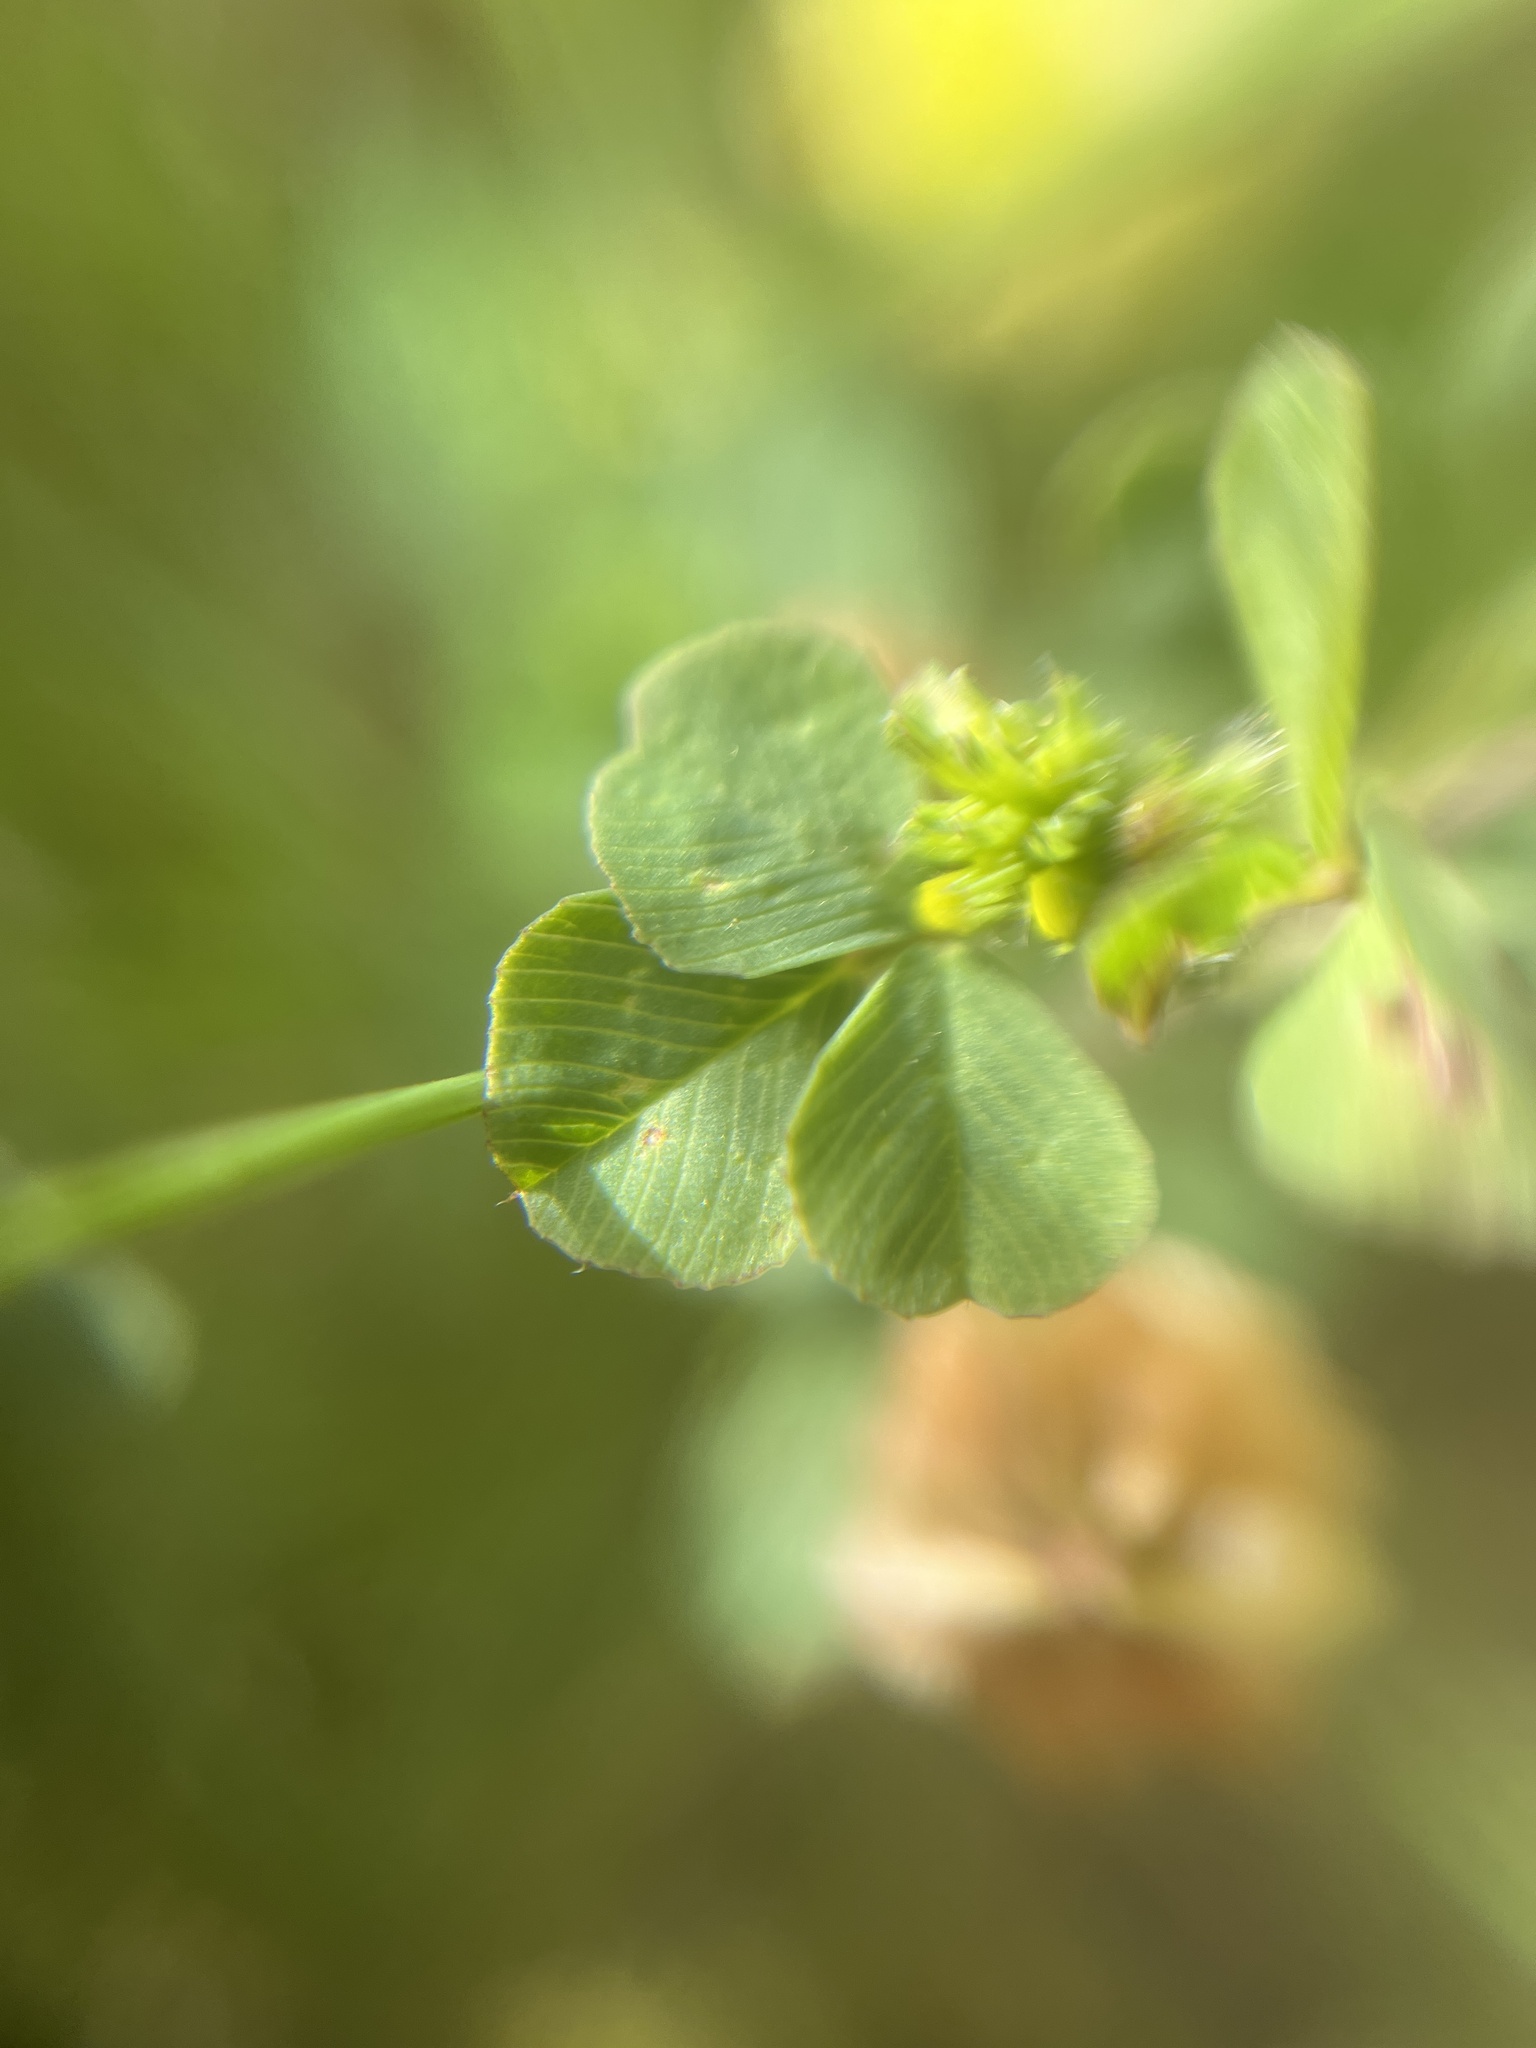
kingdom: Plantae
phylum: Tracheophyta
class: Magnoliopsida
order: Fabales
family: Fabaceae
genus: Trifolium
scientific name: Trifolium campestre
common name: Field clover
